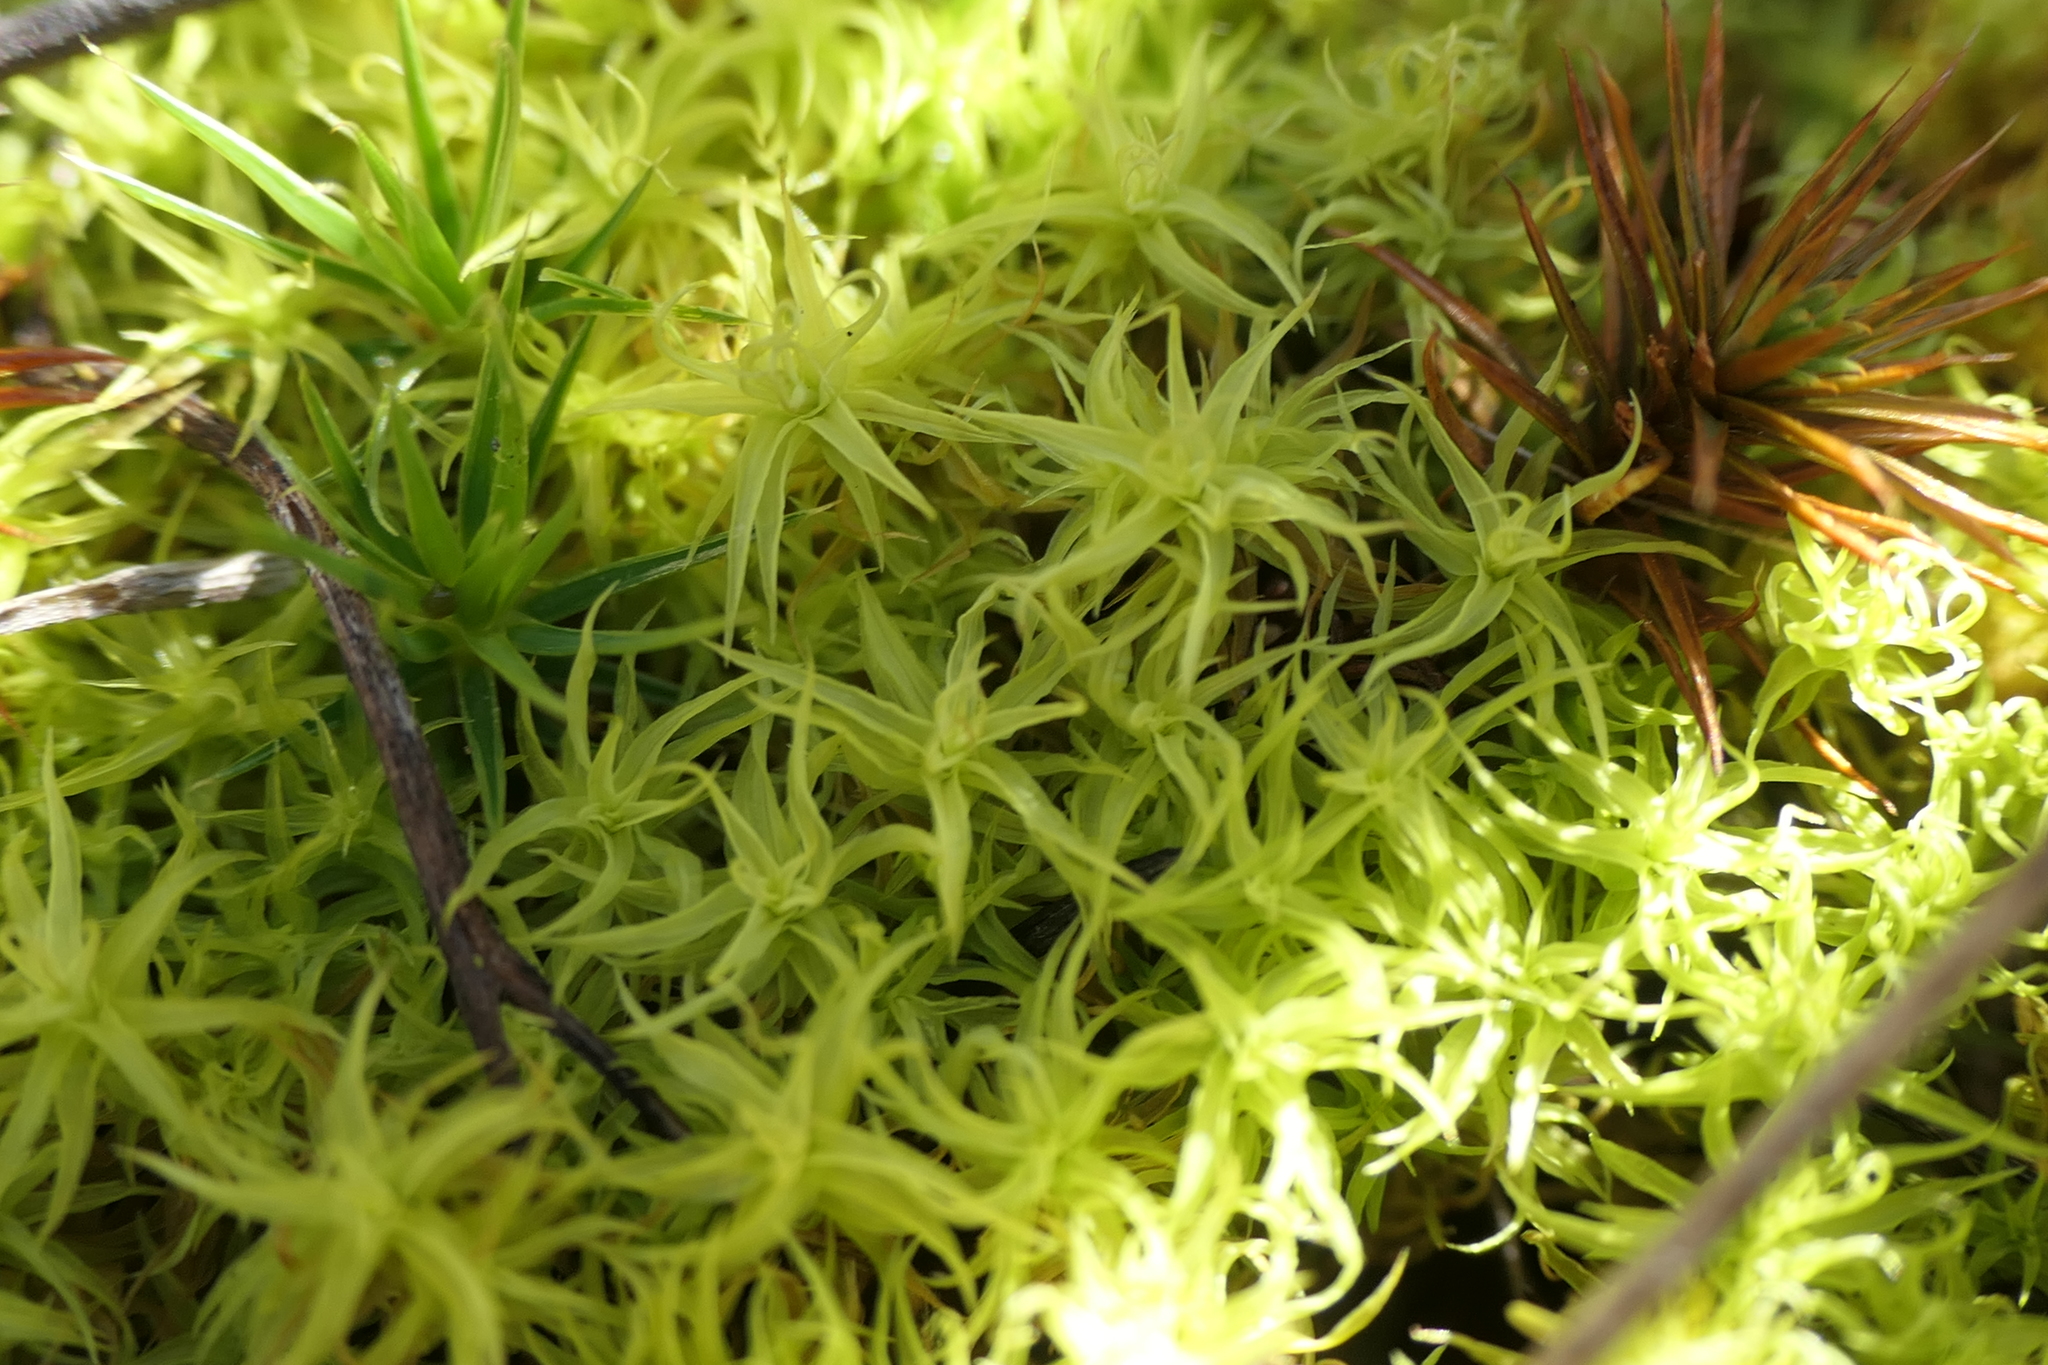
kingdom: Plantae
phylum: Bryophyta
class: Bryopsida
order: Pottiales
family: Pottiaceae
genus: Pleurochaete
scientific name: Pleurochaete squarrosa
